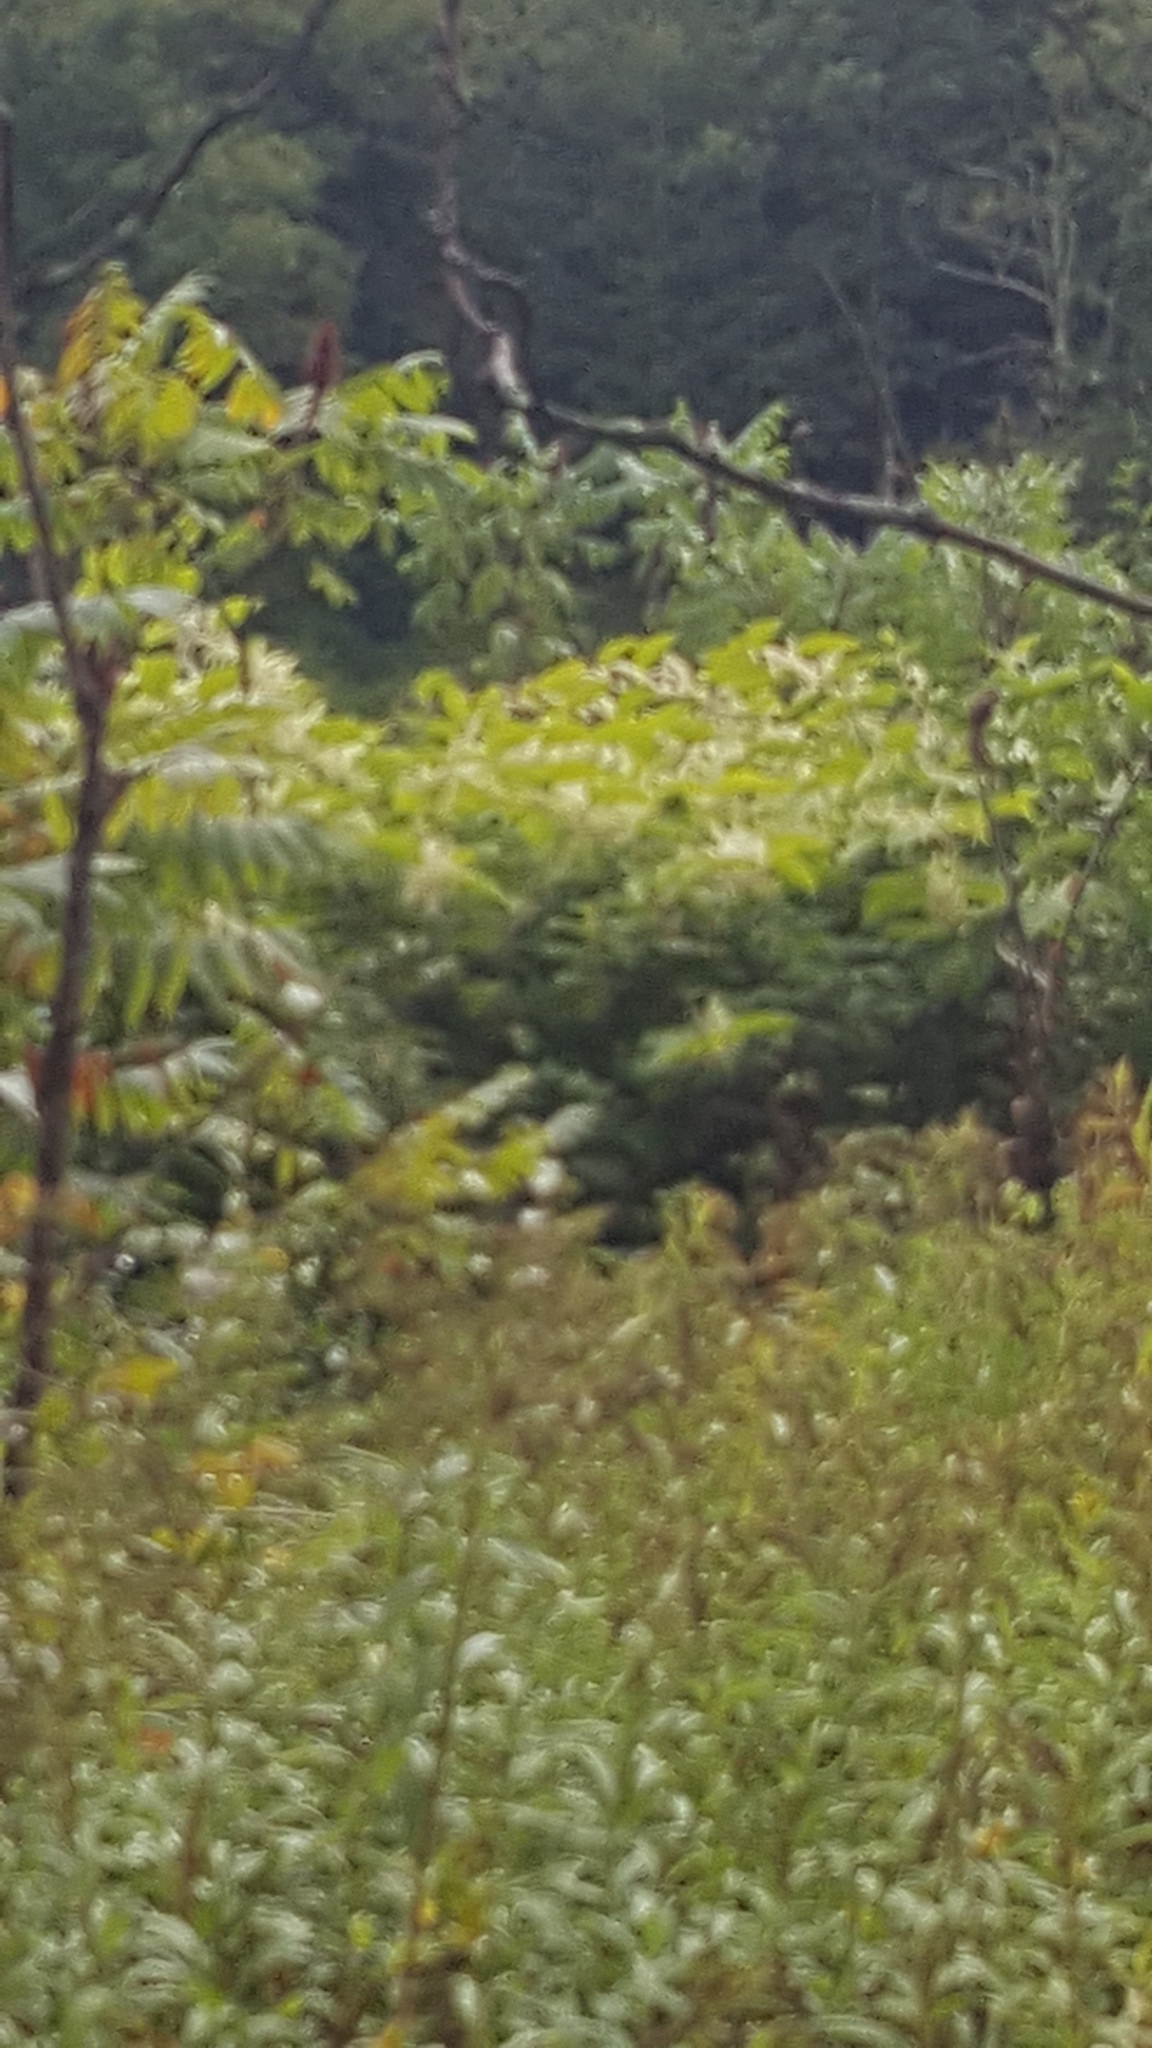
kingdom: Plantae
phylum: Tracheophyta
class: Magnoliopsida
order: Caryophyllales
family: Polygonaceae
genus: Reynoutria
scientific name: Reynoutria japonica
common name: Japanese knotweed
